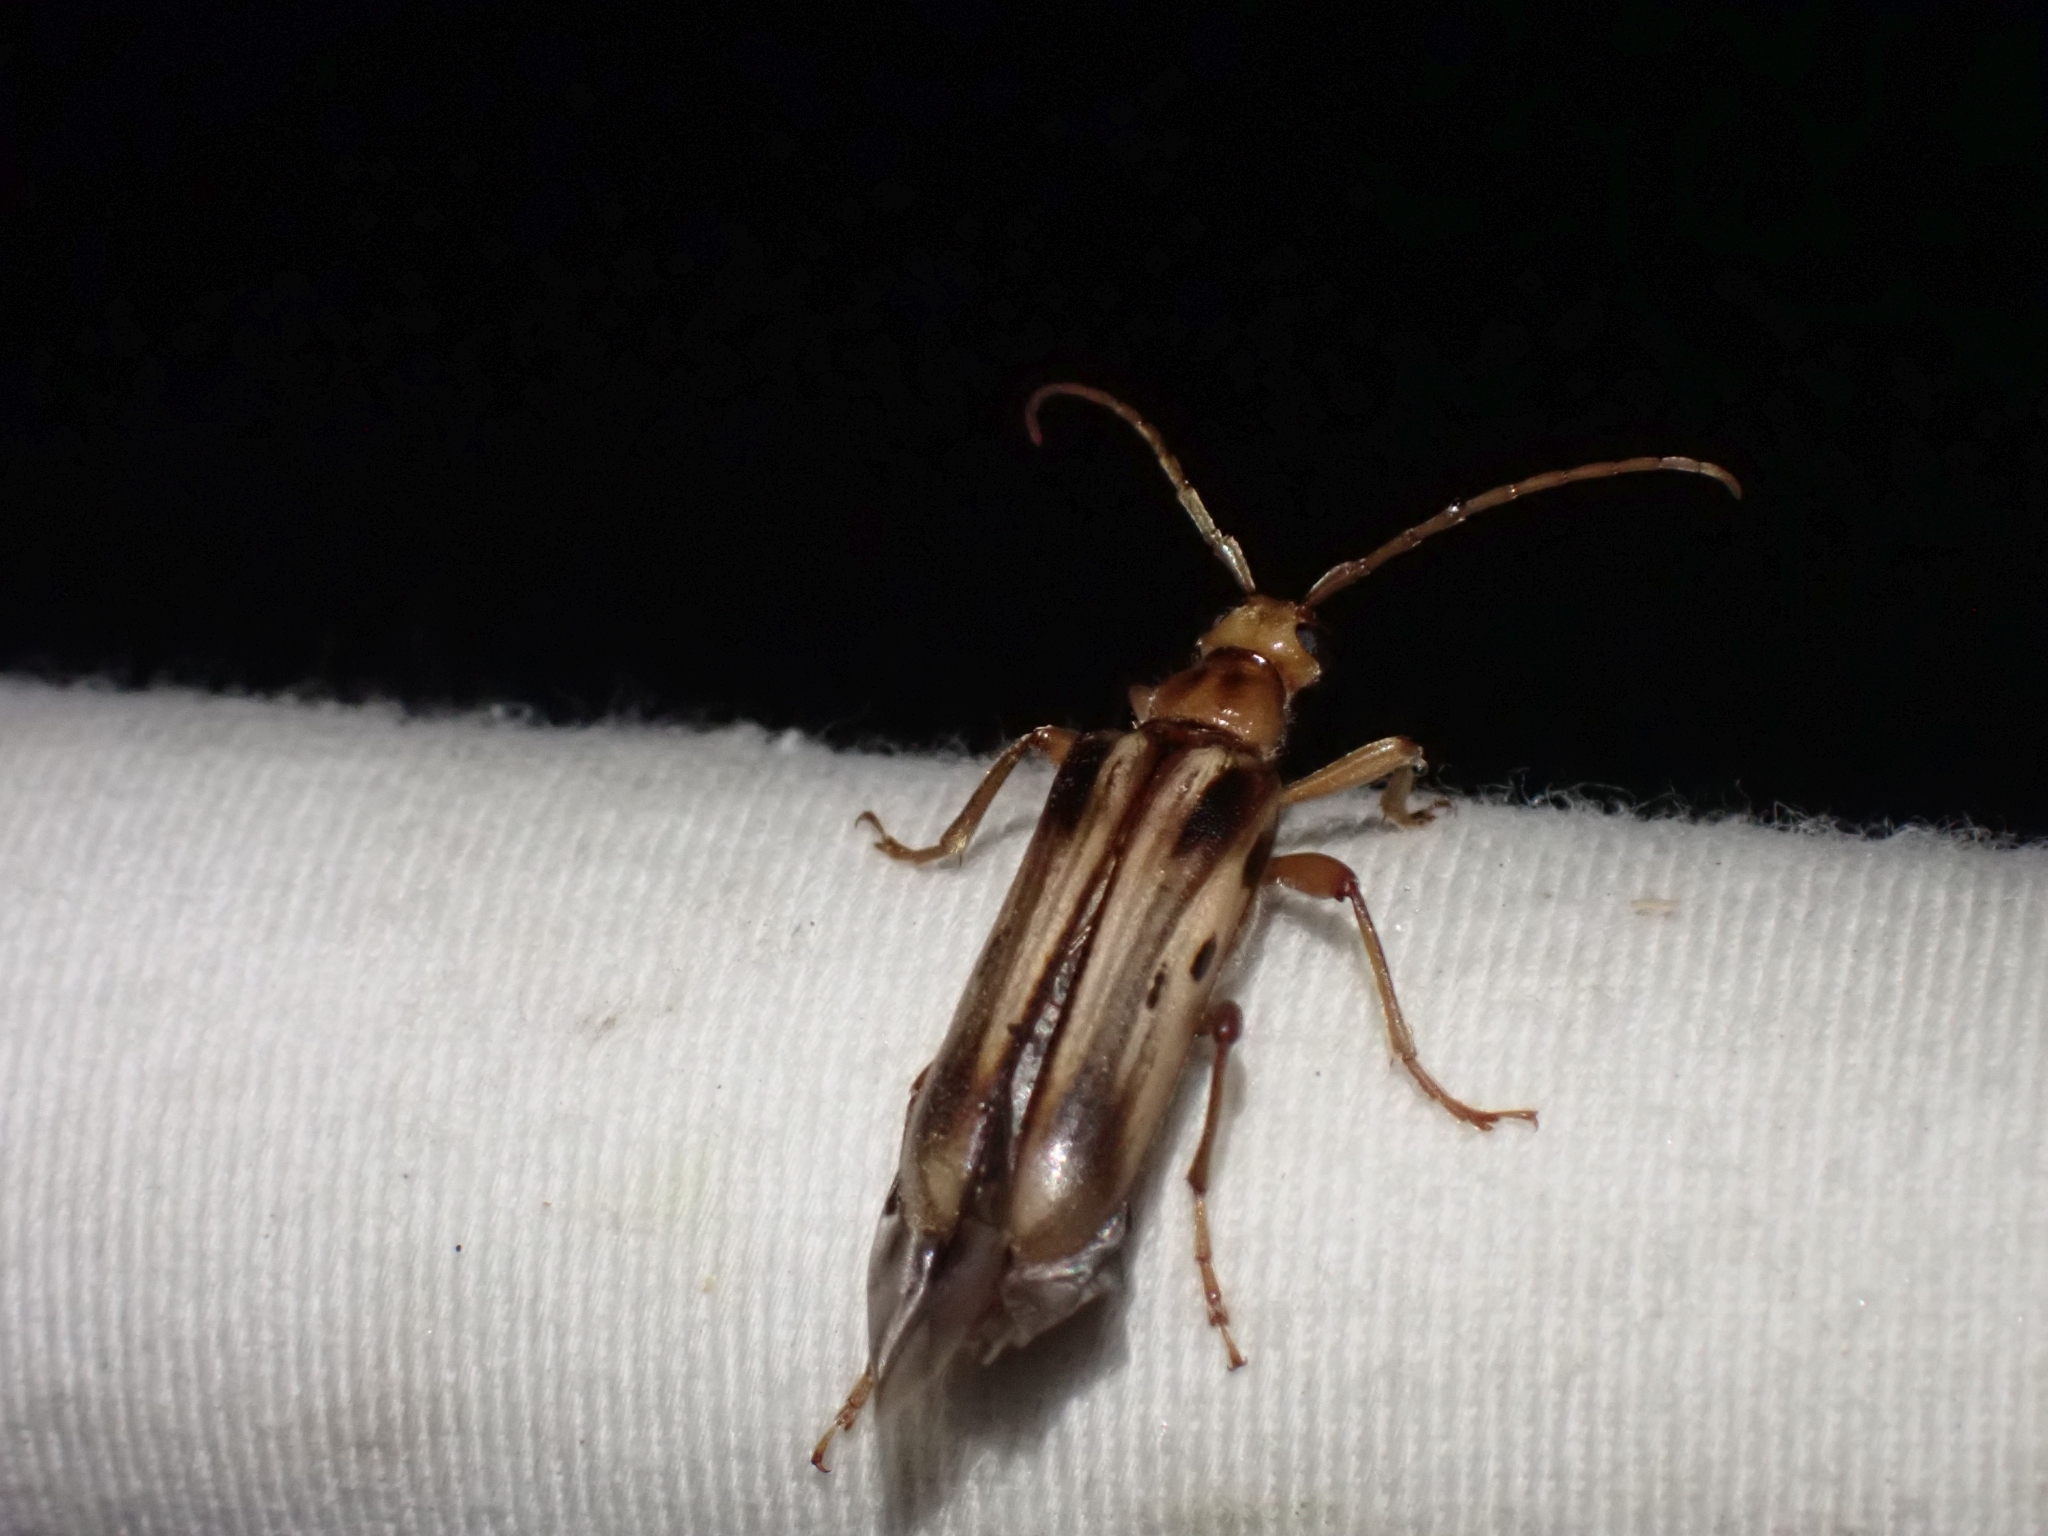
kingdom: Animalia
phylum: Arthropoda
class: Insecta
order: Coleoptera
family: Cerambycidae
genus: Ortholeptura
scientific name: Ortholeptura valida
